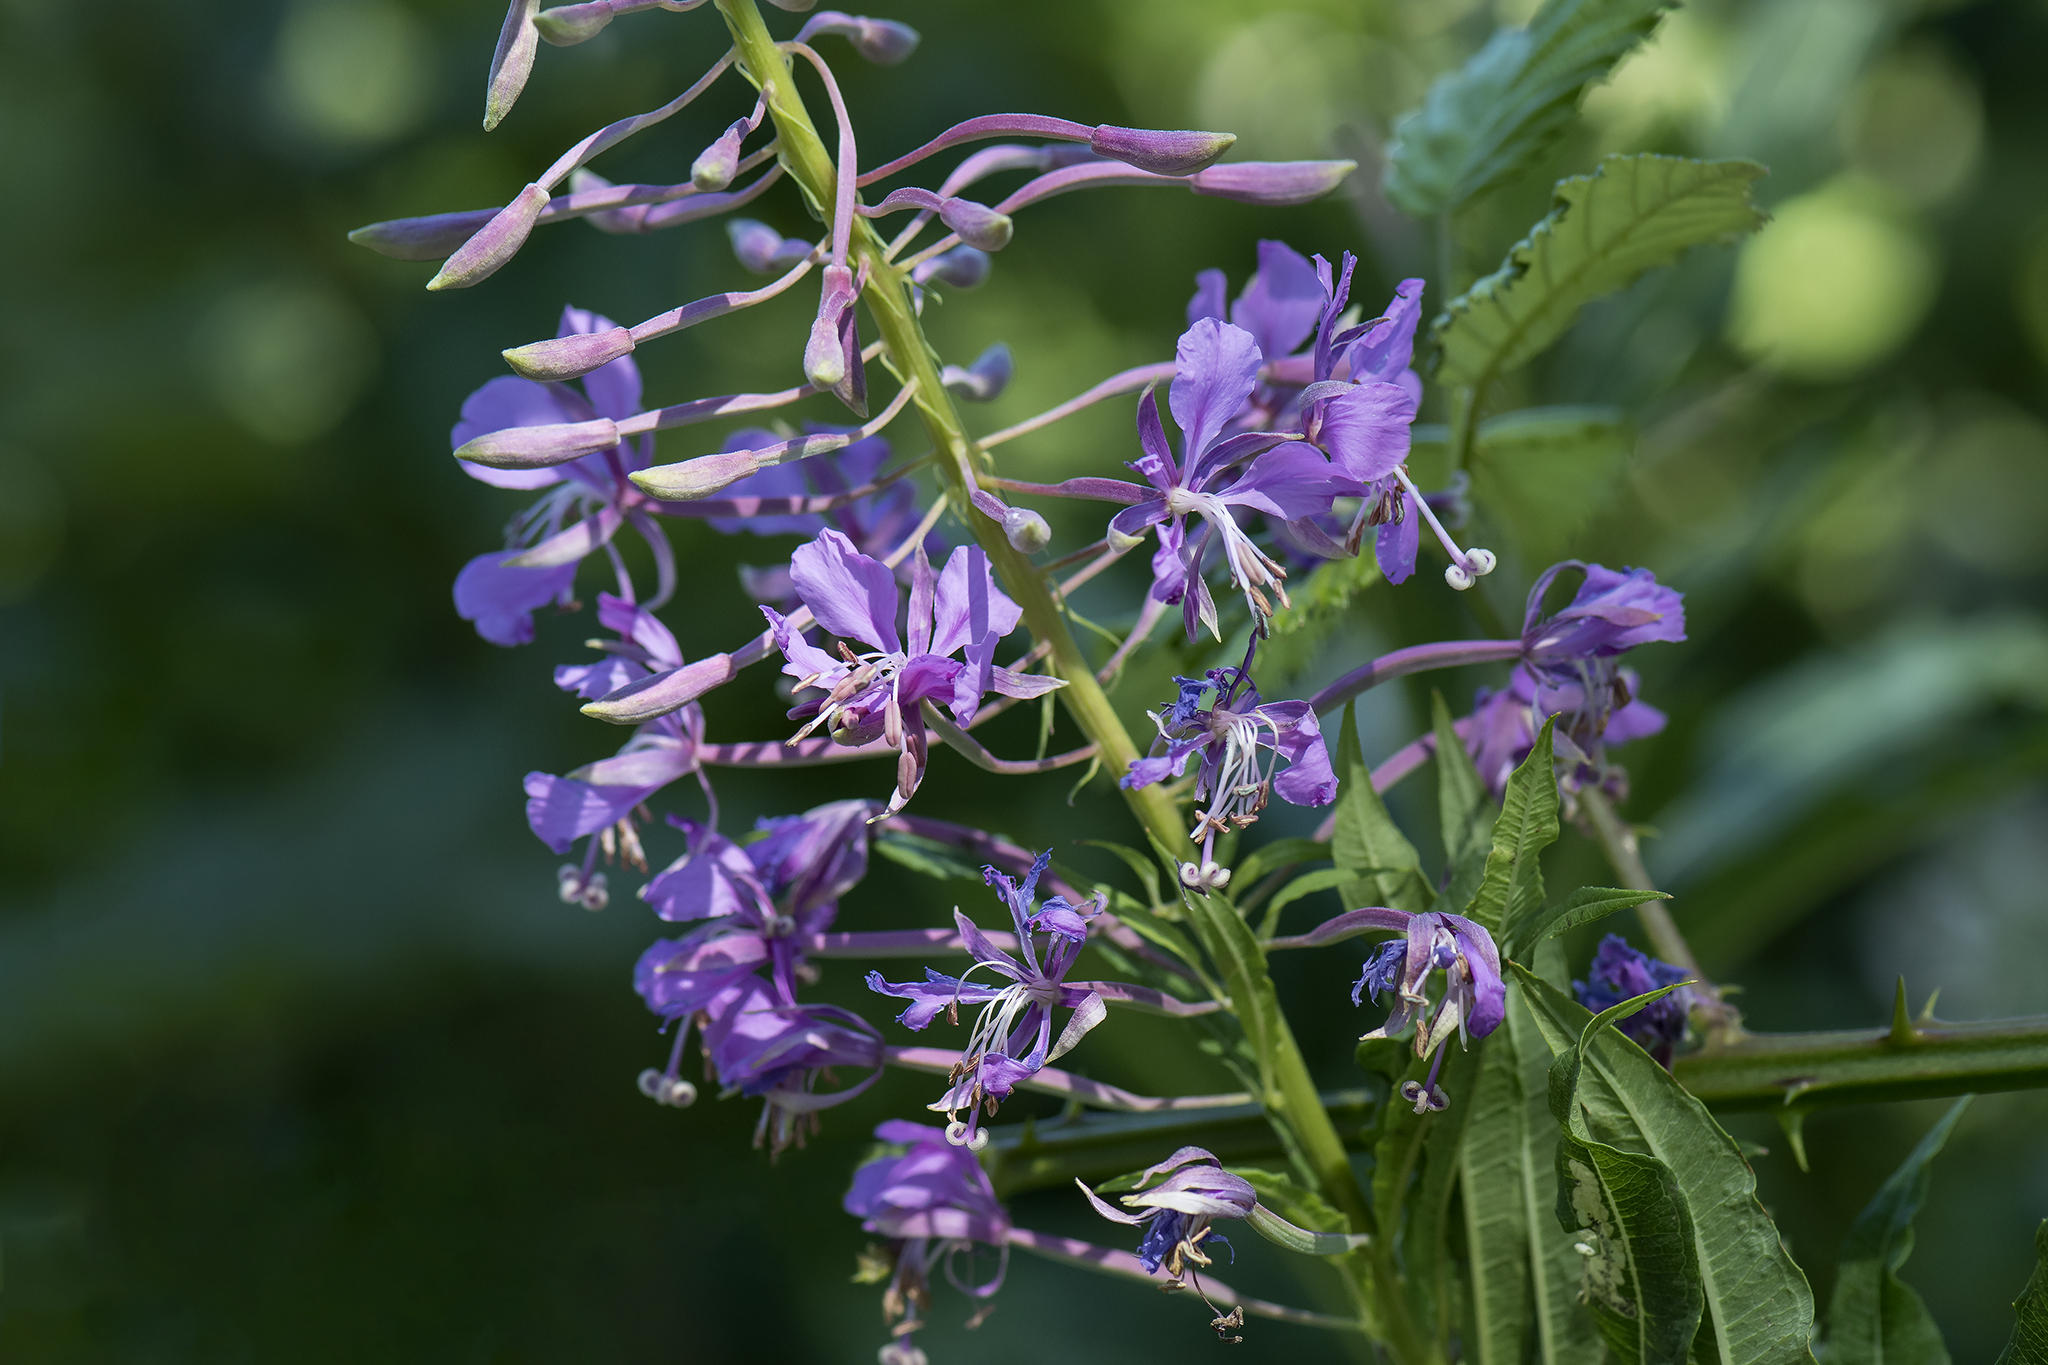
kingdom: Plantae
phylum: Tracheophyta
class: Magnoliopsida
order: Myrtales
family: Onagraceae
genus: Chamaenerion
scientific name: Chamaenerion angustifolium
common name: Fireweed
